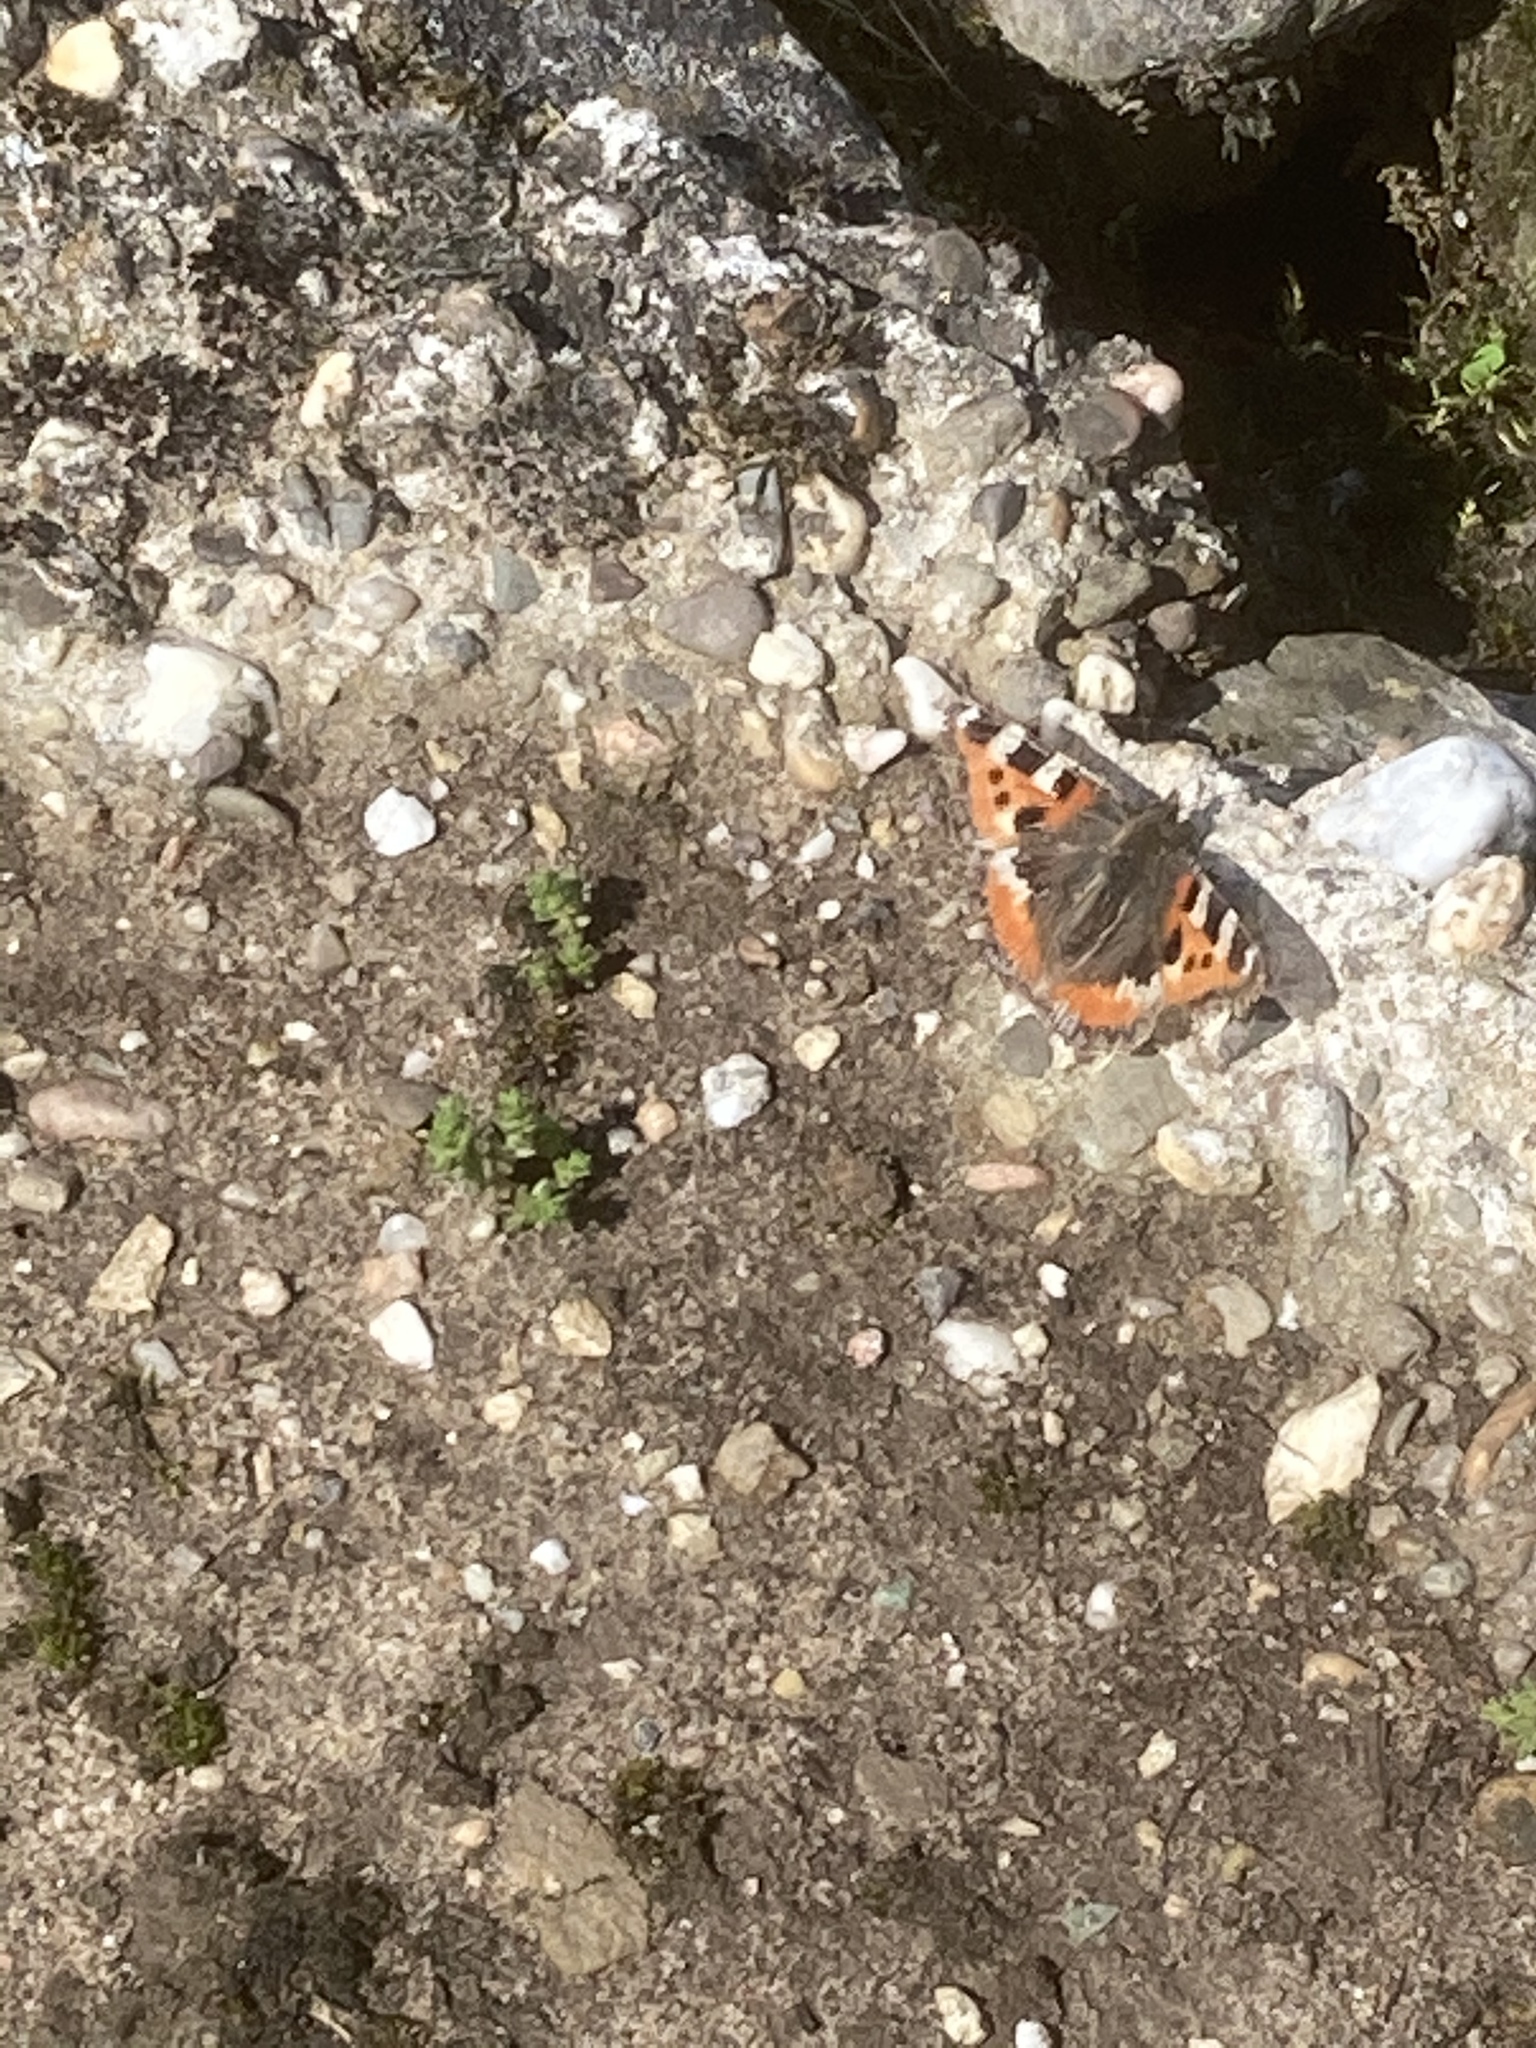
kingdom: Animalia
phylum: Arthropoda
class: Insecta
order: Lepidoptera
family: Nymphalidae
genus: Aglais
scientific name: Aglais urticae
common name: Small tortoiseshell
